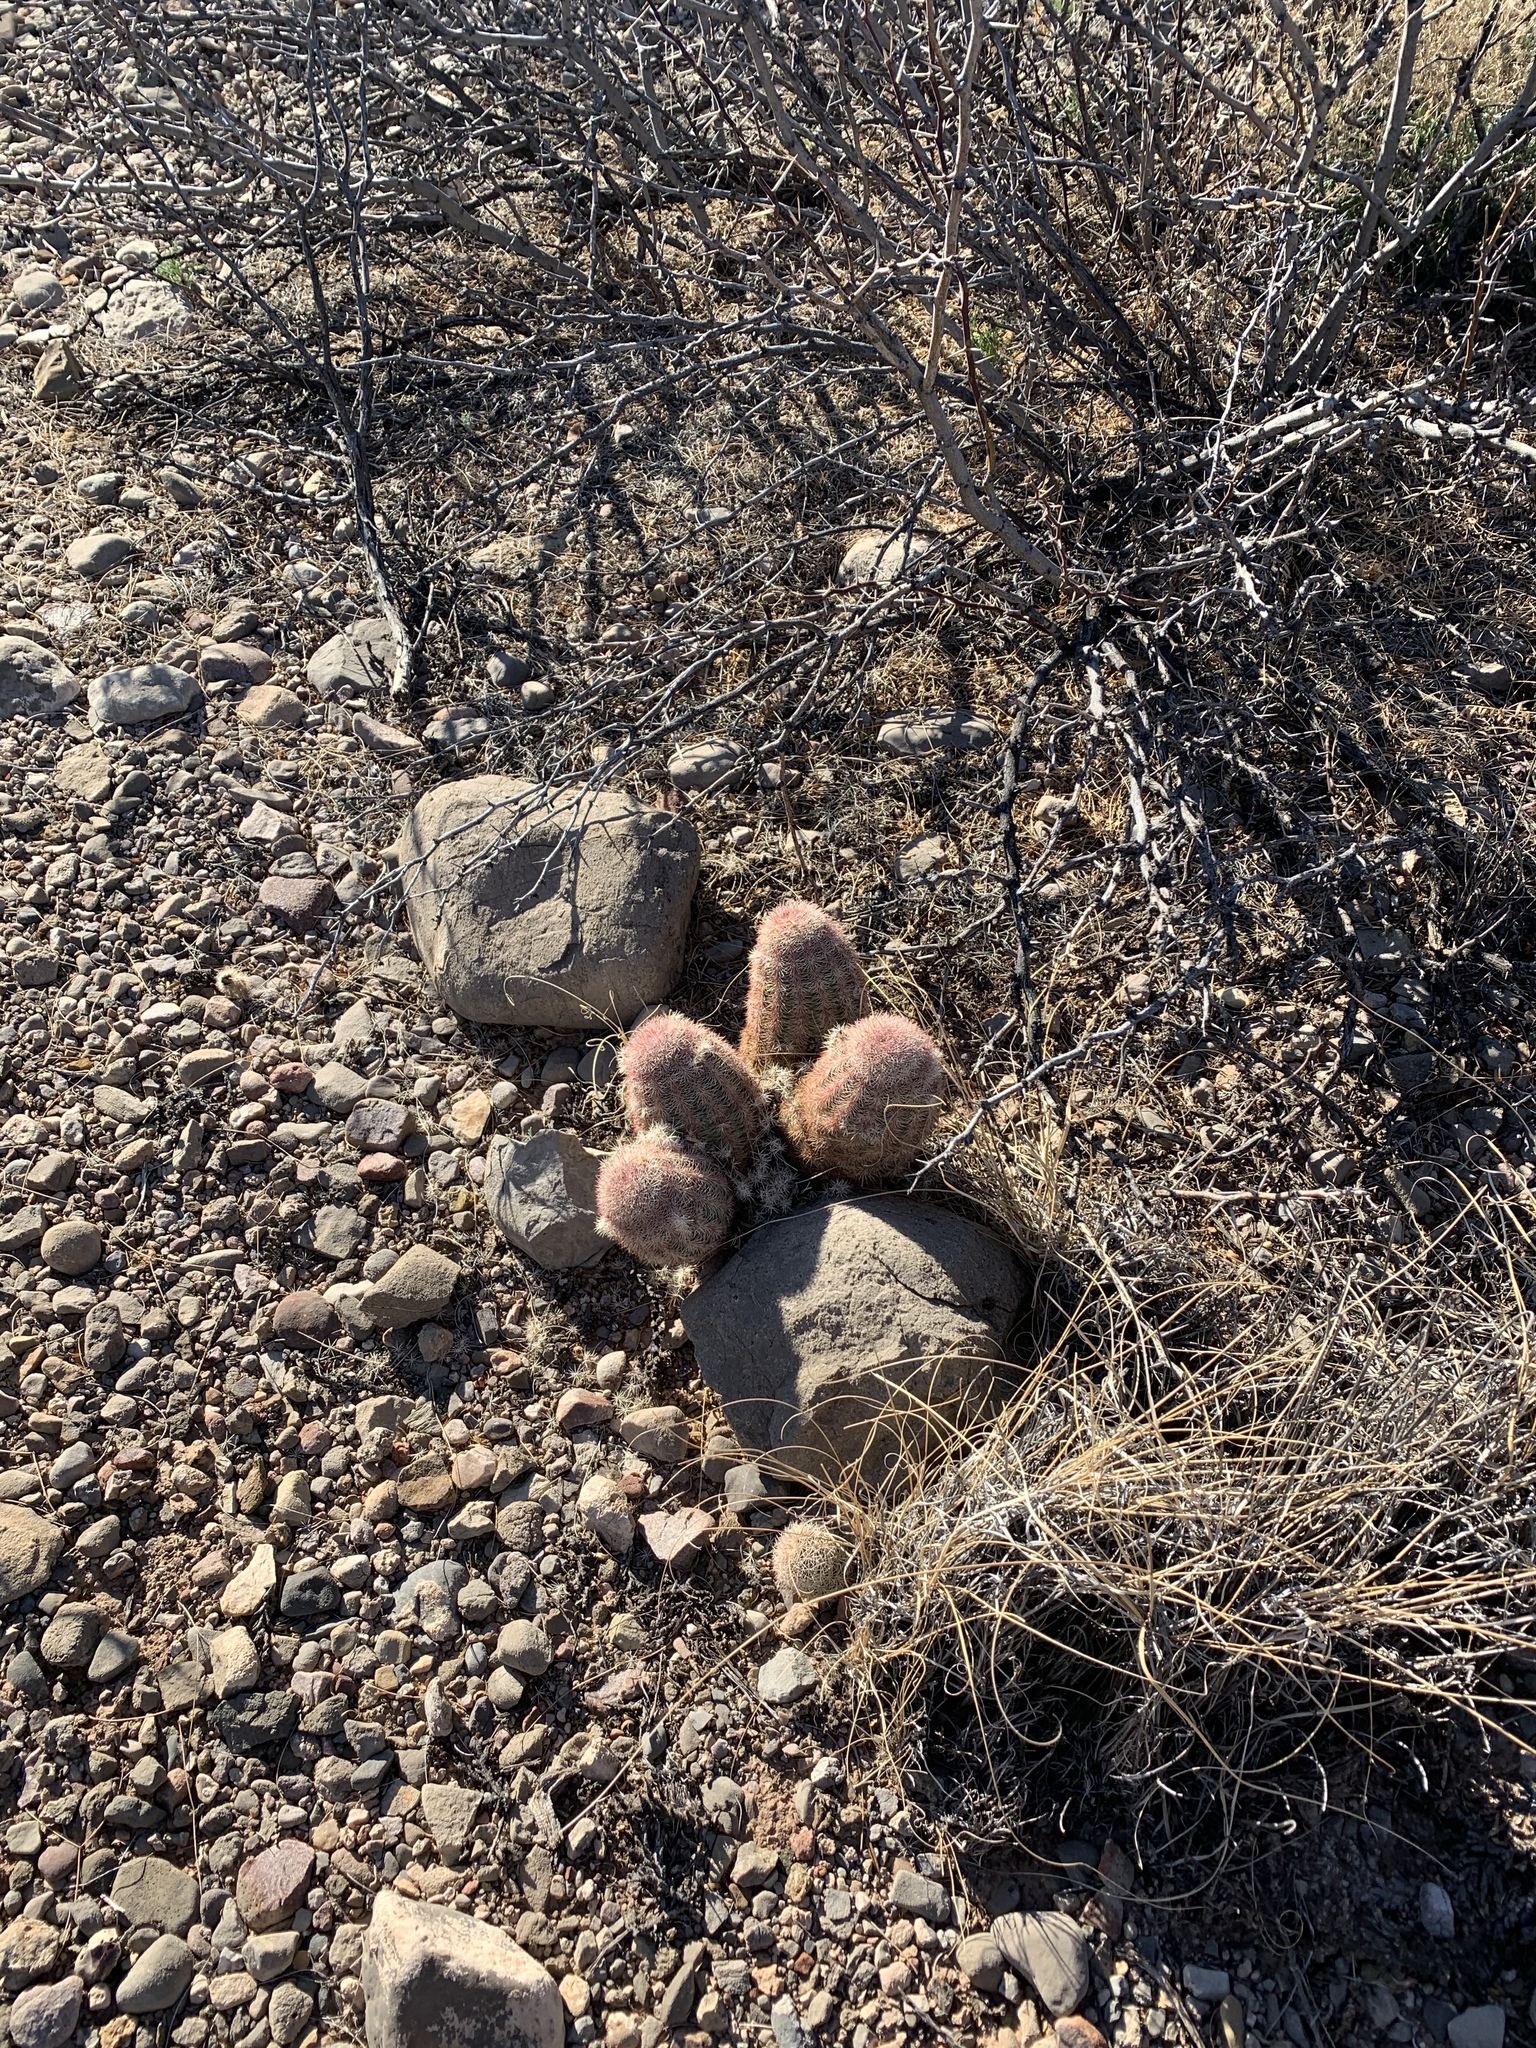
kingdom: Plantae
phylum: Tracheophyta
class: Magnoliopsida
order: Caryophyllales
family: Cactaceae
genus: Echinocereus
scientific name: Echinocereus dasyacanthus
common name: Spiny hedgehog cactus
